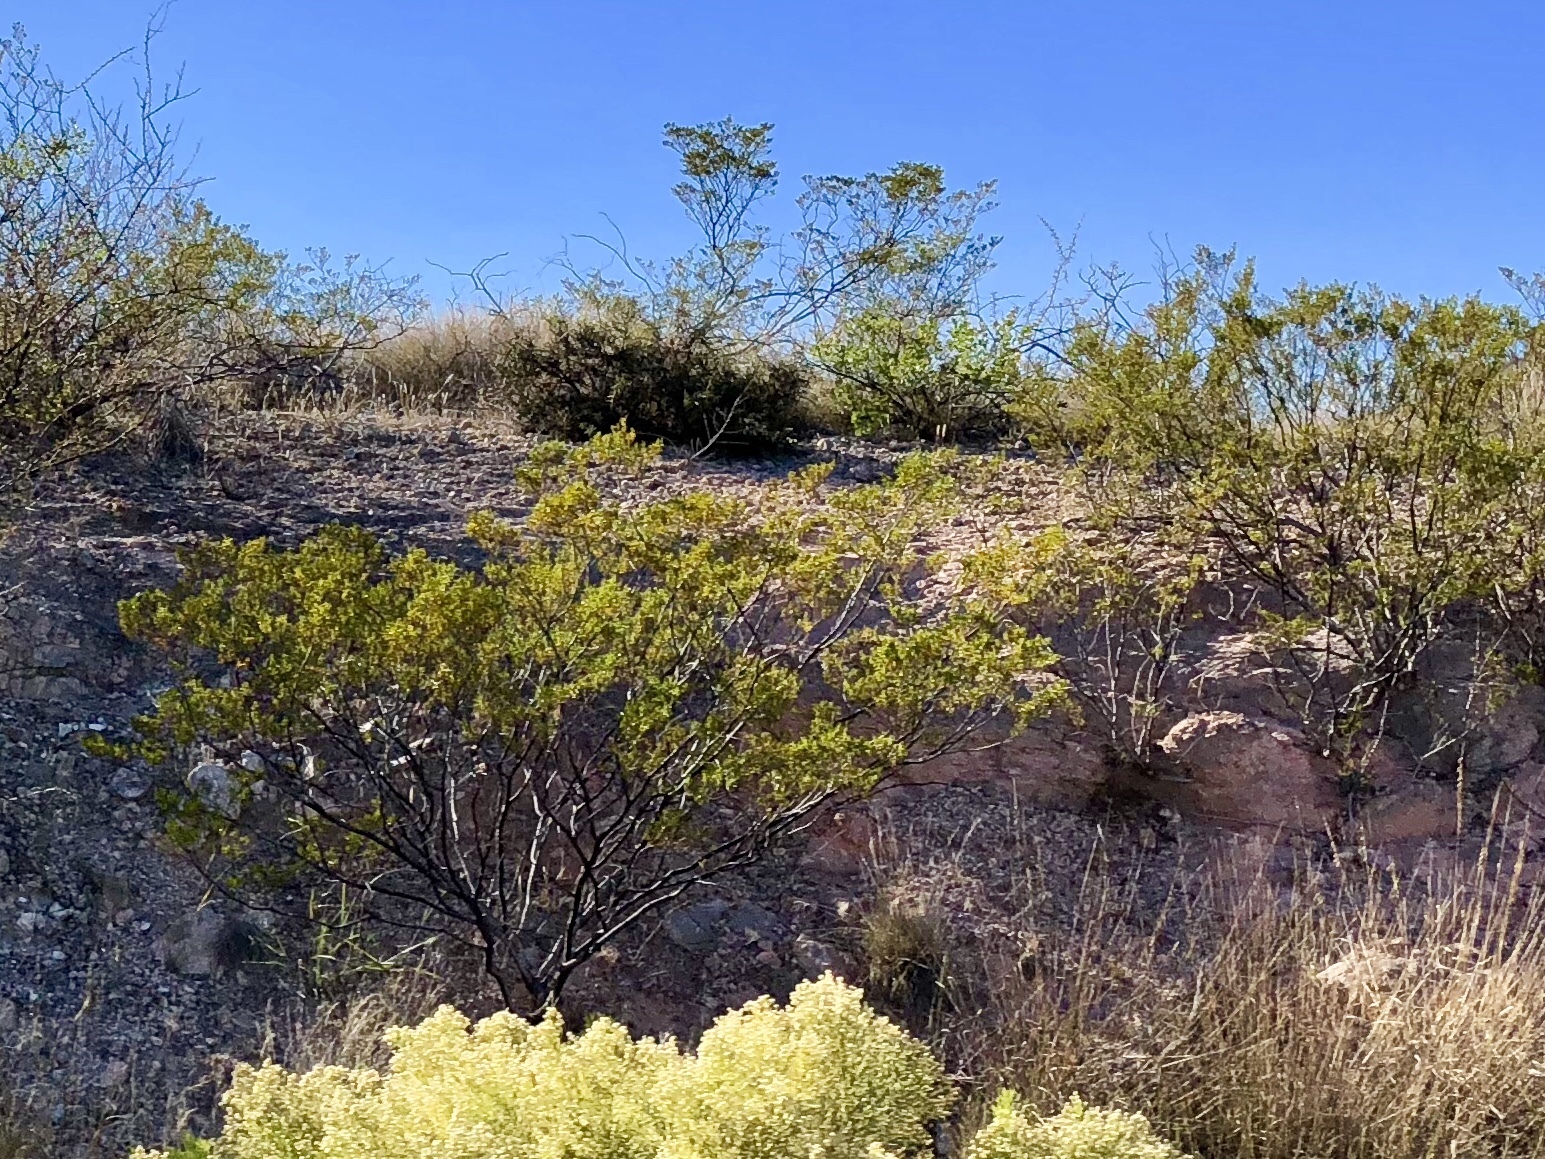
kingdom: Plantae
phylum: Tracheophyta
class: Magnoliopsida
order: Zygophyllales
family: Zygophyllaceae
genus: Larrea
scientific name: Larrea tridentata
